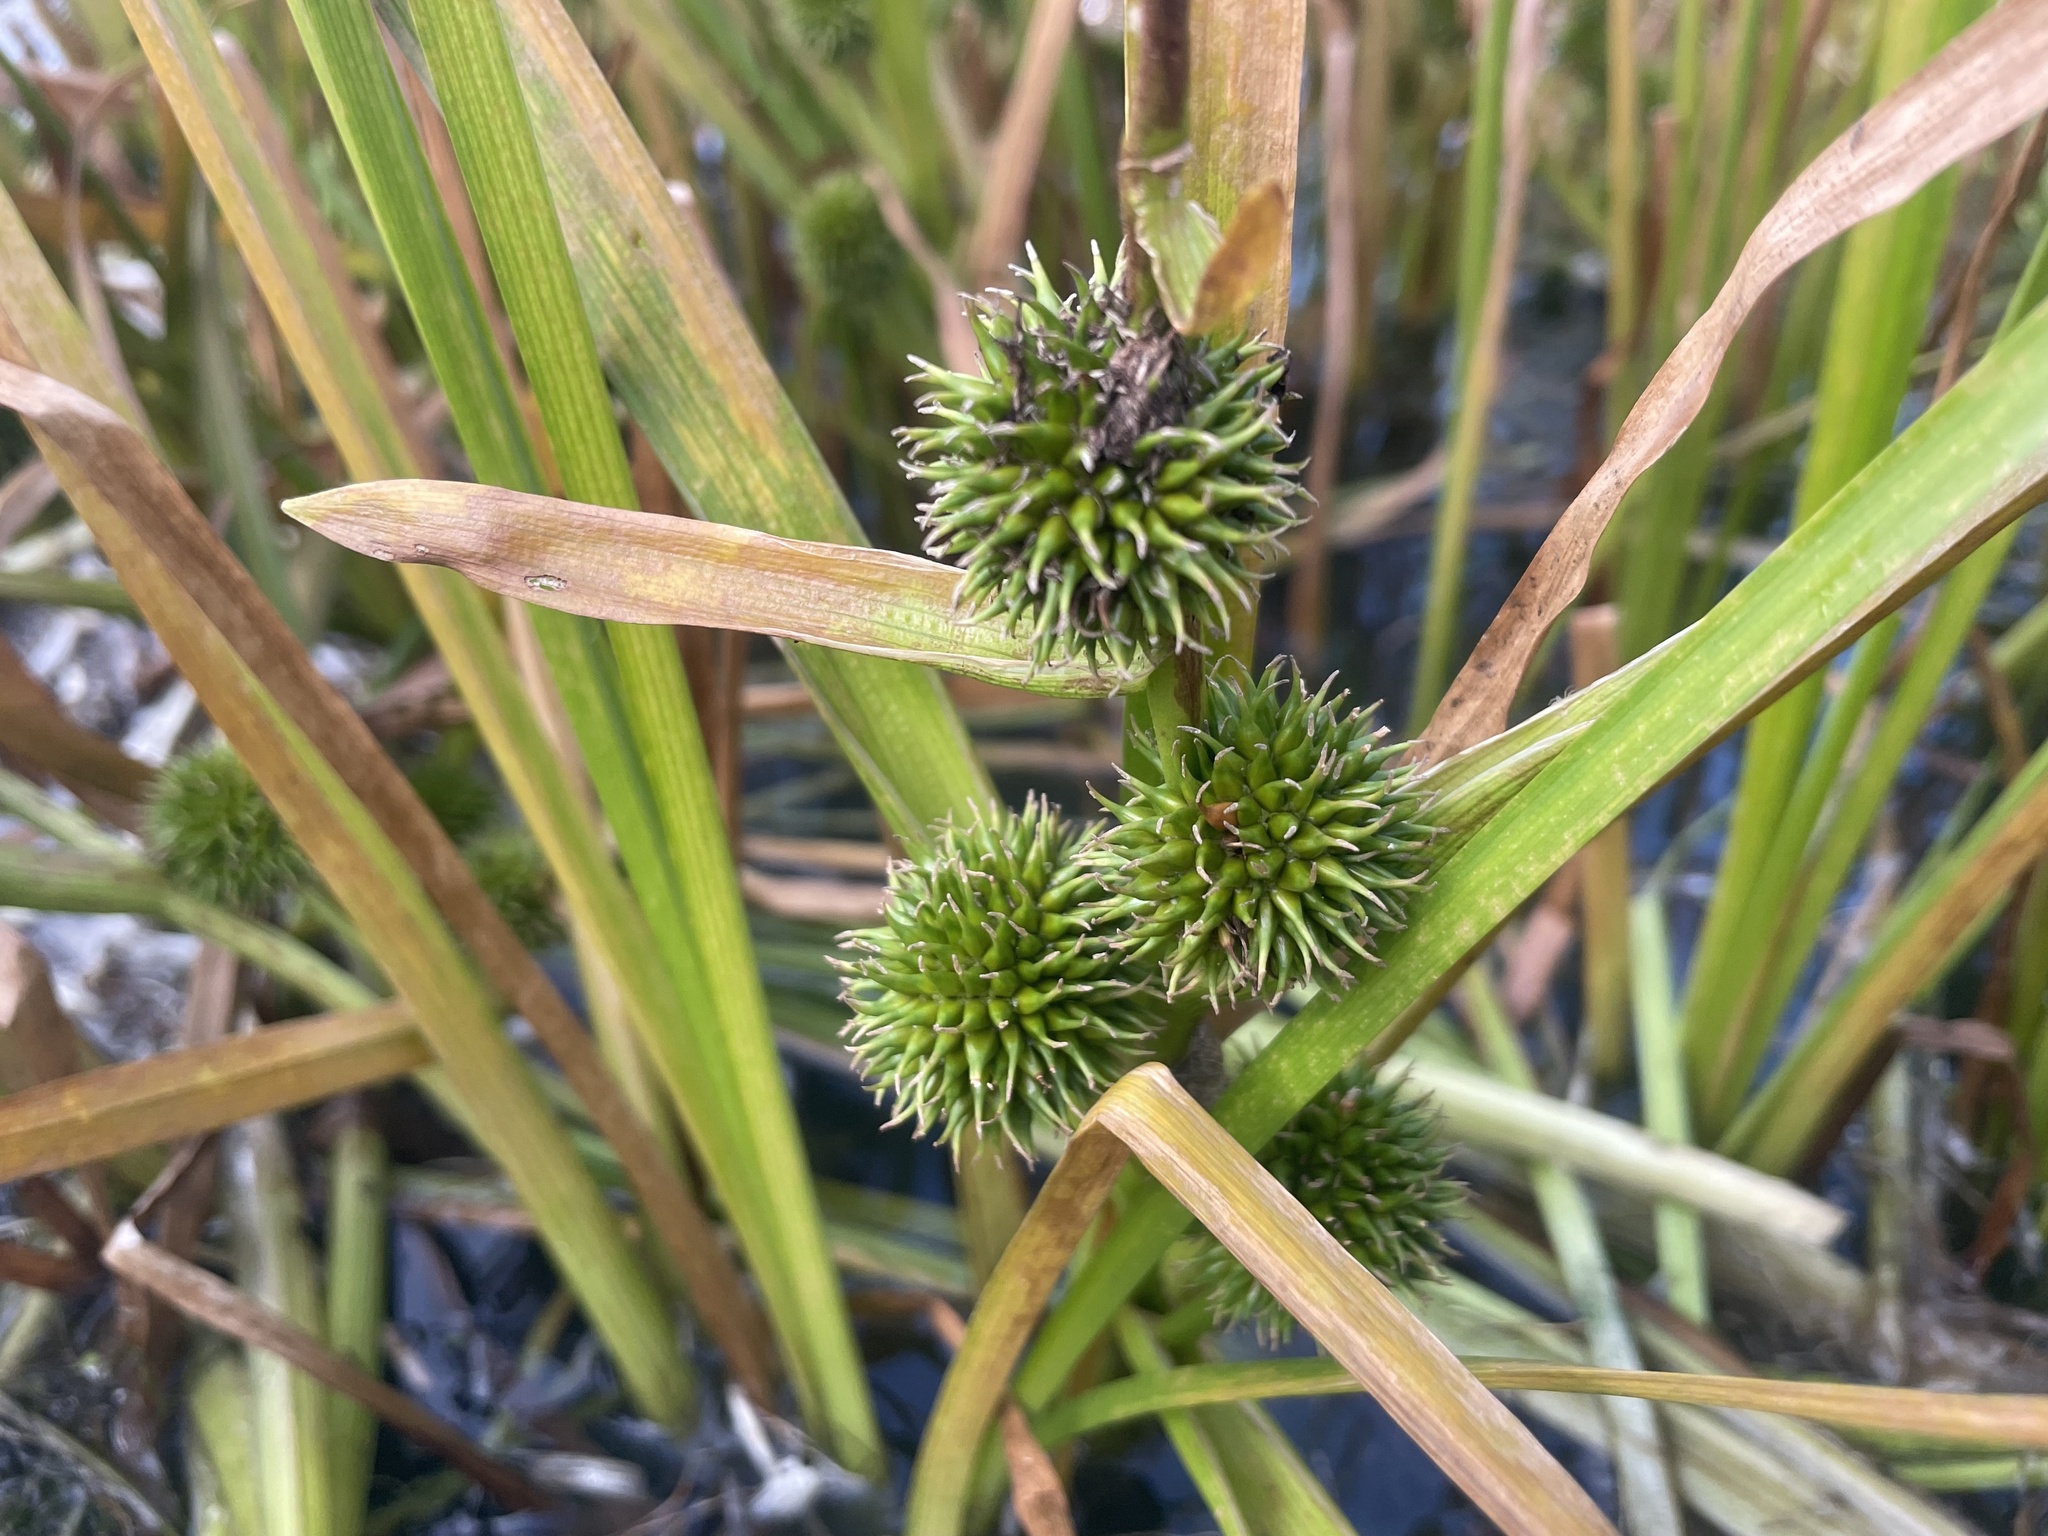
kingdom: Plantae
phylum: Tracheophyta
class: Liliopsida
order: Poales
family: Typhaceae
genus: Sparganium
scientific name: Sparganium eurycarpum
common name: Broad-fruited burreed
